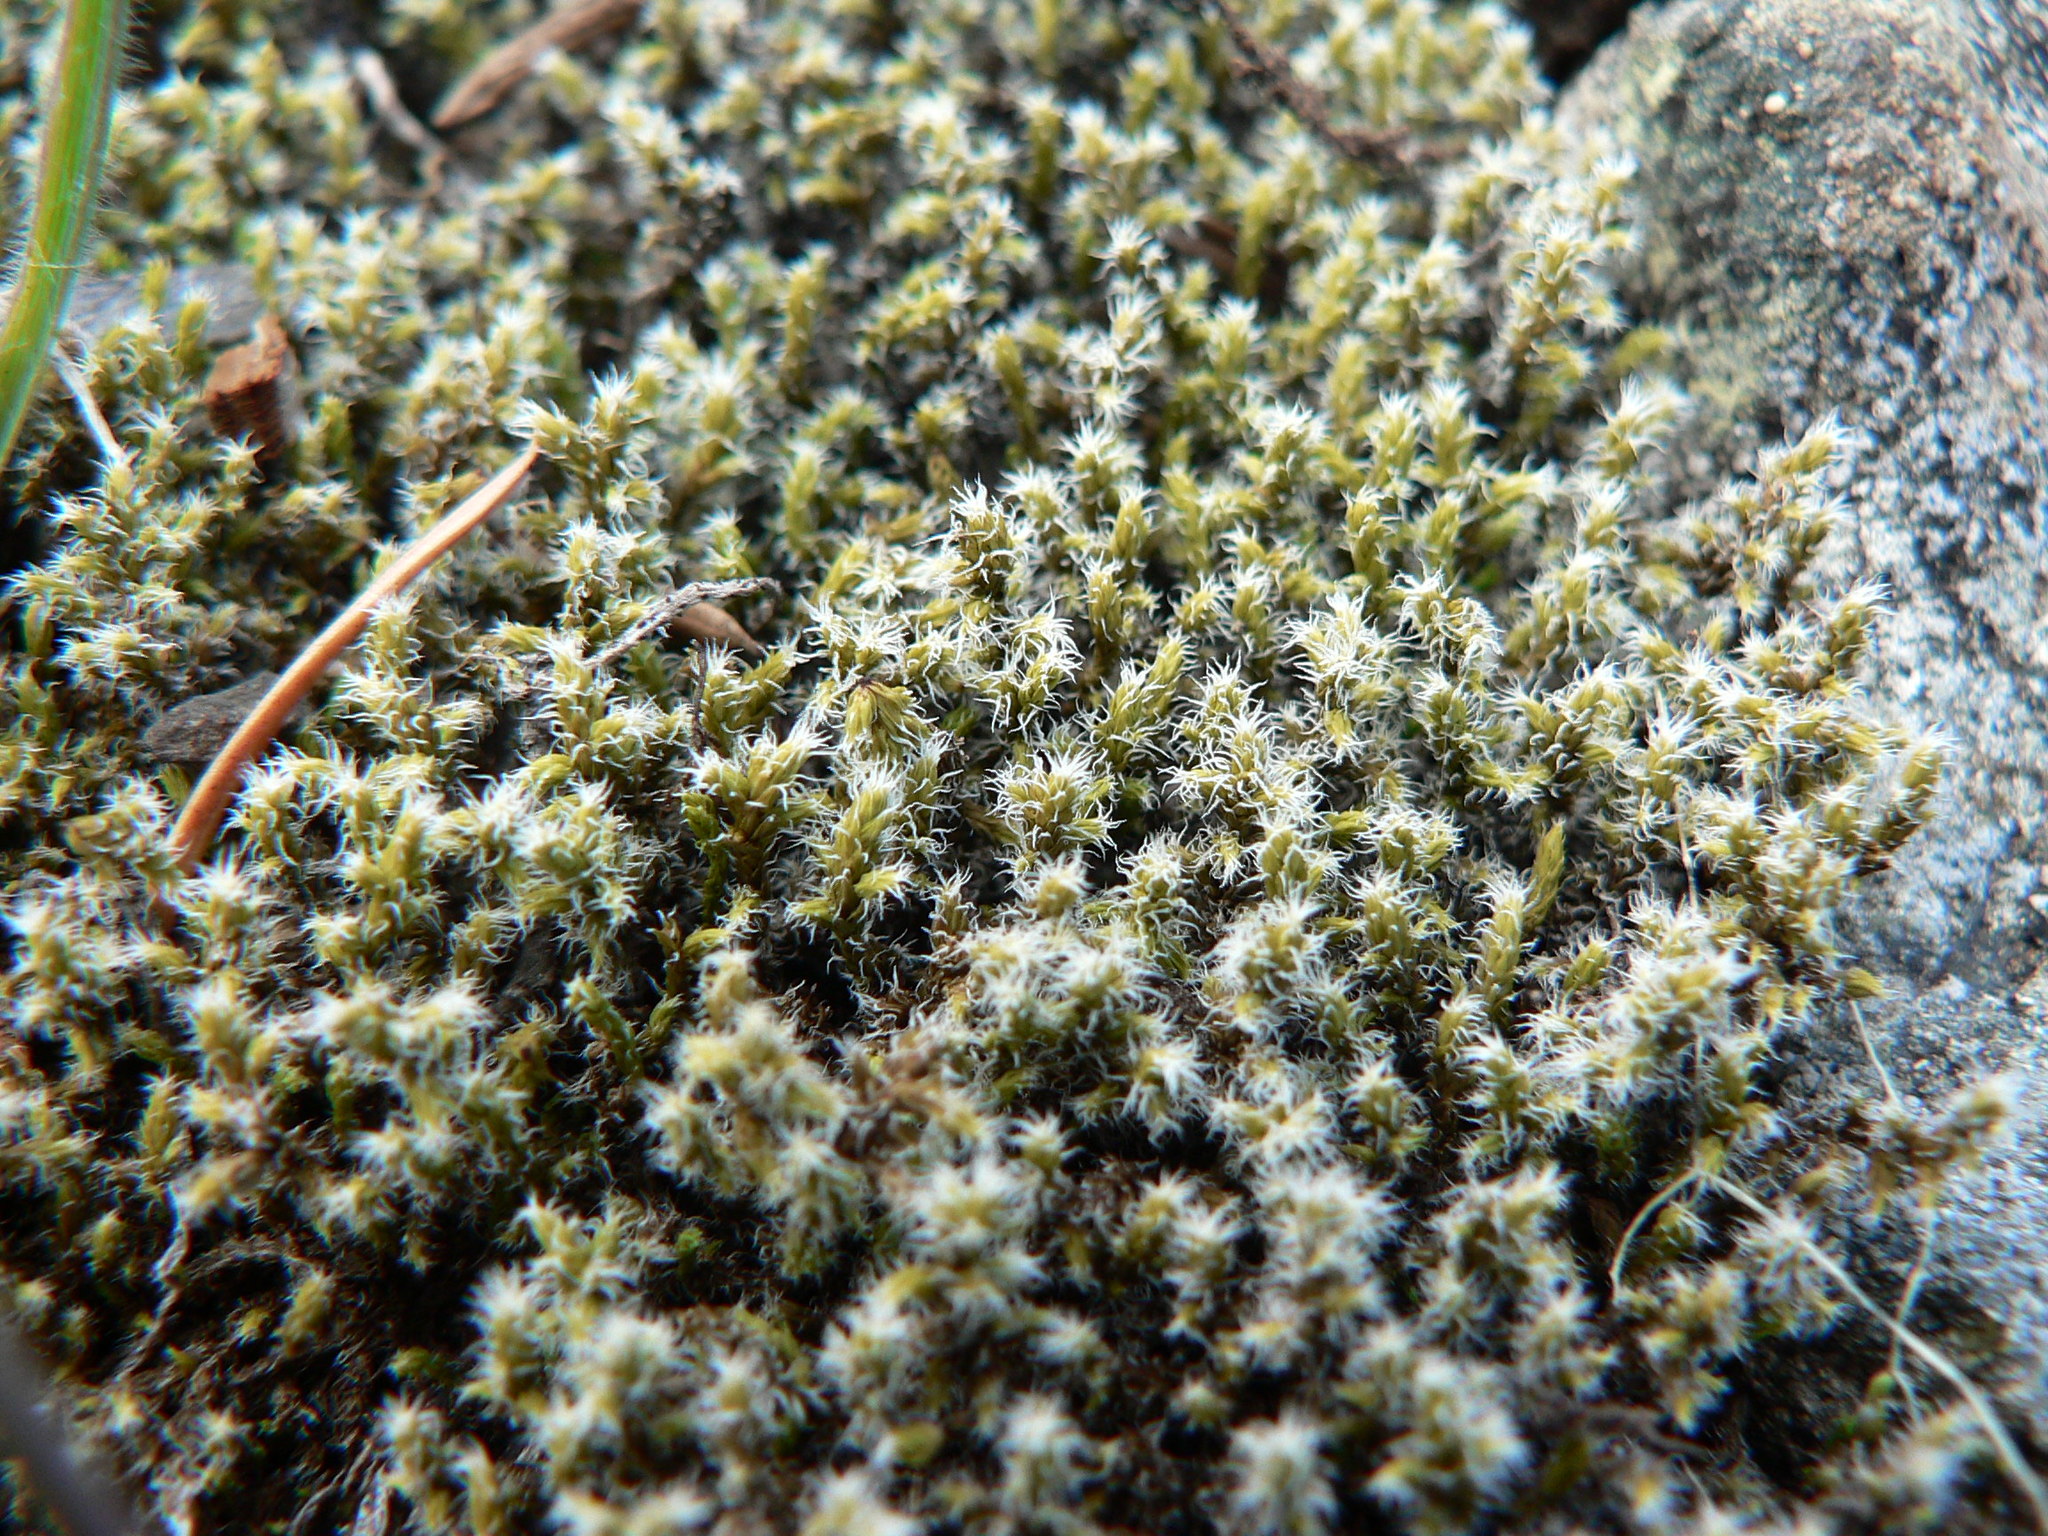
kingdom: Plantae
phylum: Bryophyta
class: Bryopsida
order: Grimmiales
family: Grimmiaceae
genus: Niphotrichum
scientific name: Niphotrichum elongatum
